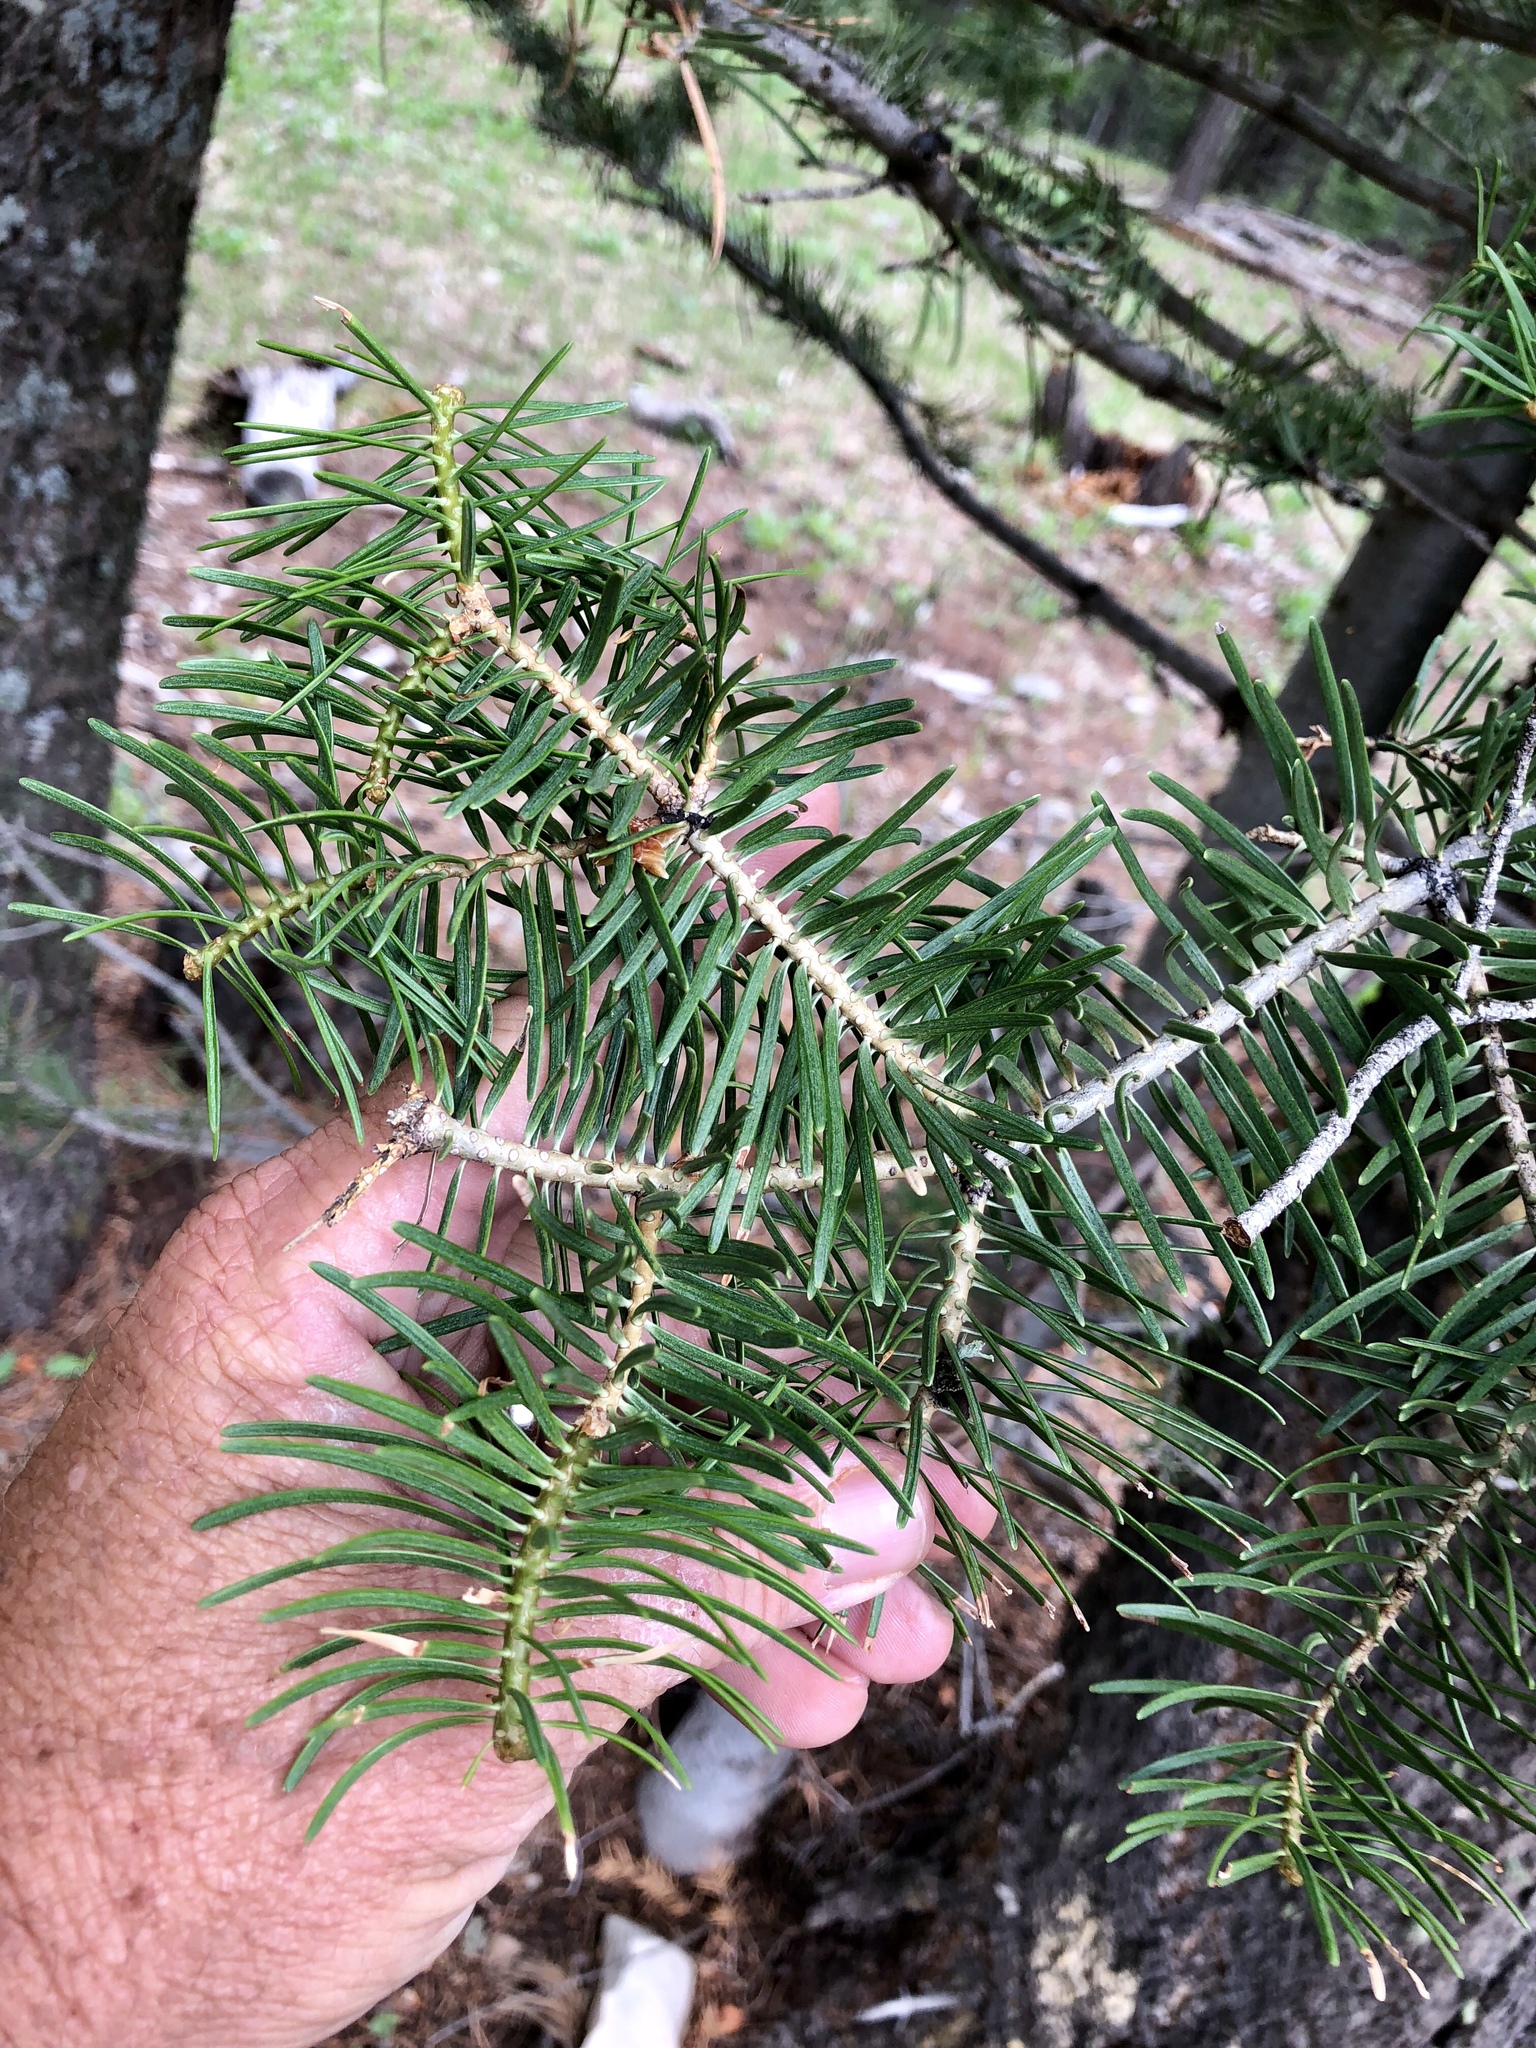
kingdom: Plantae
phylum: Tracheophyta
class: Pinopsida
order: Pinales
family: Pinaceae
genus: Abies
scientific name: Abies concolor
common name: Colorado fir
